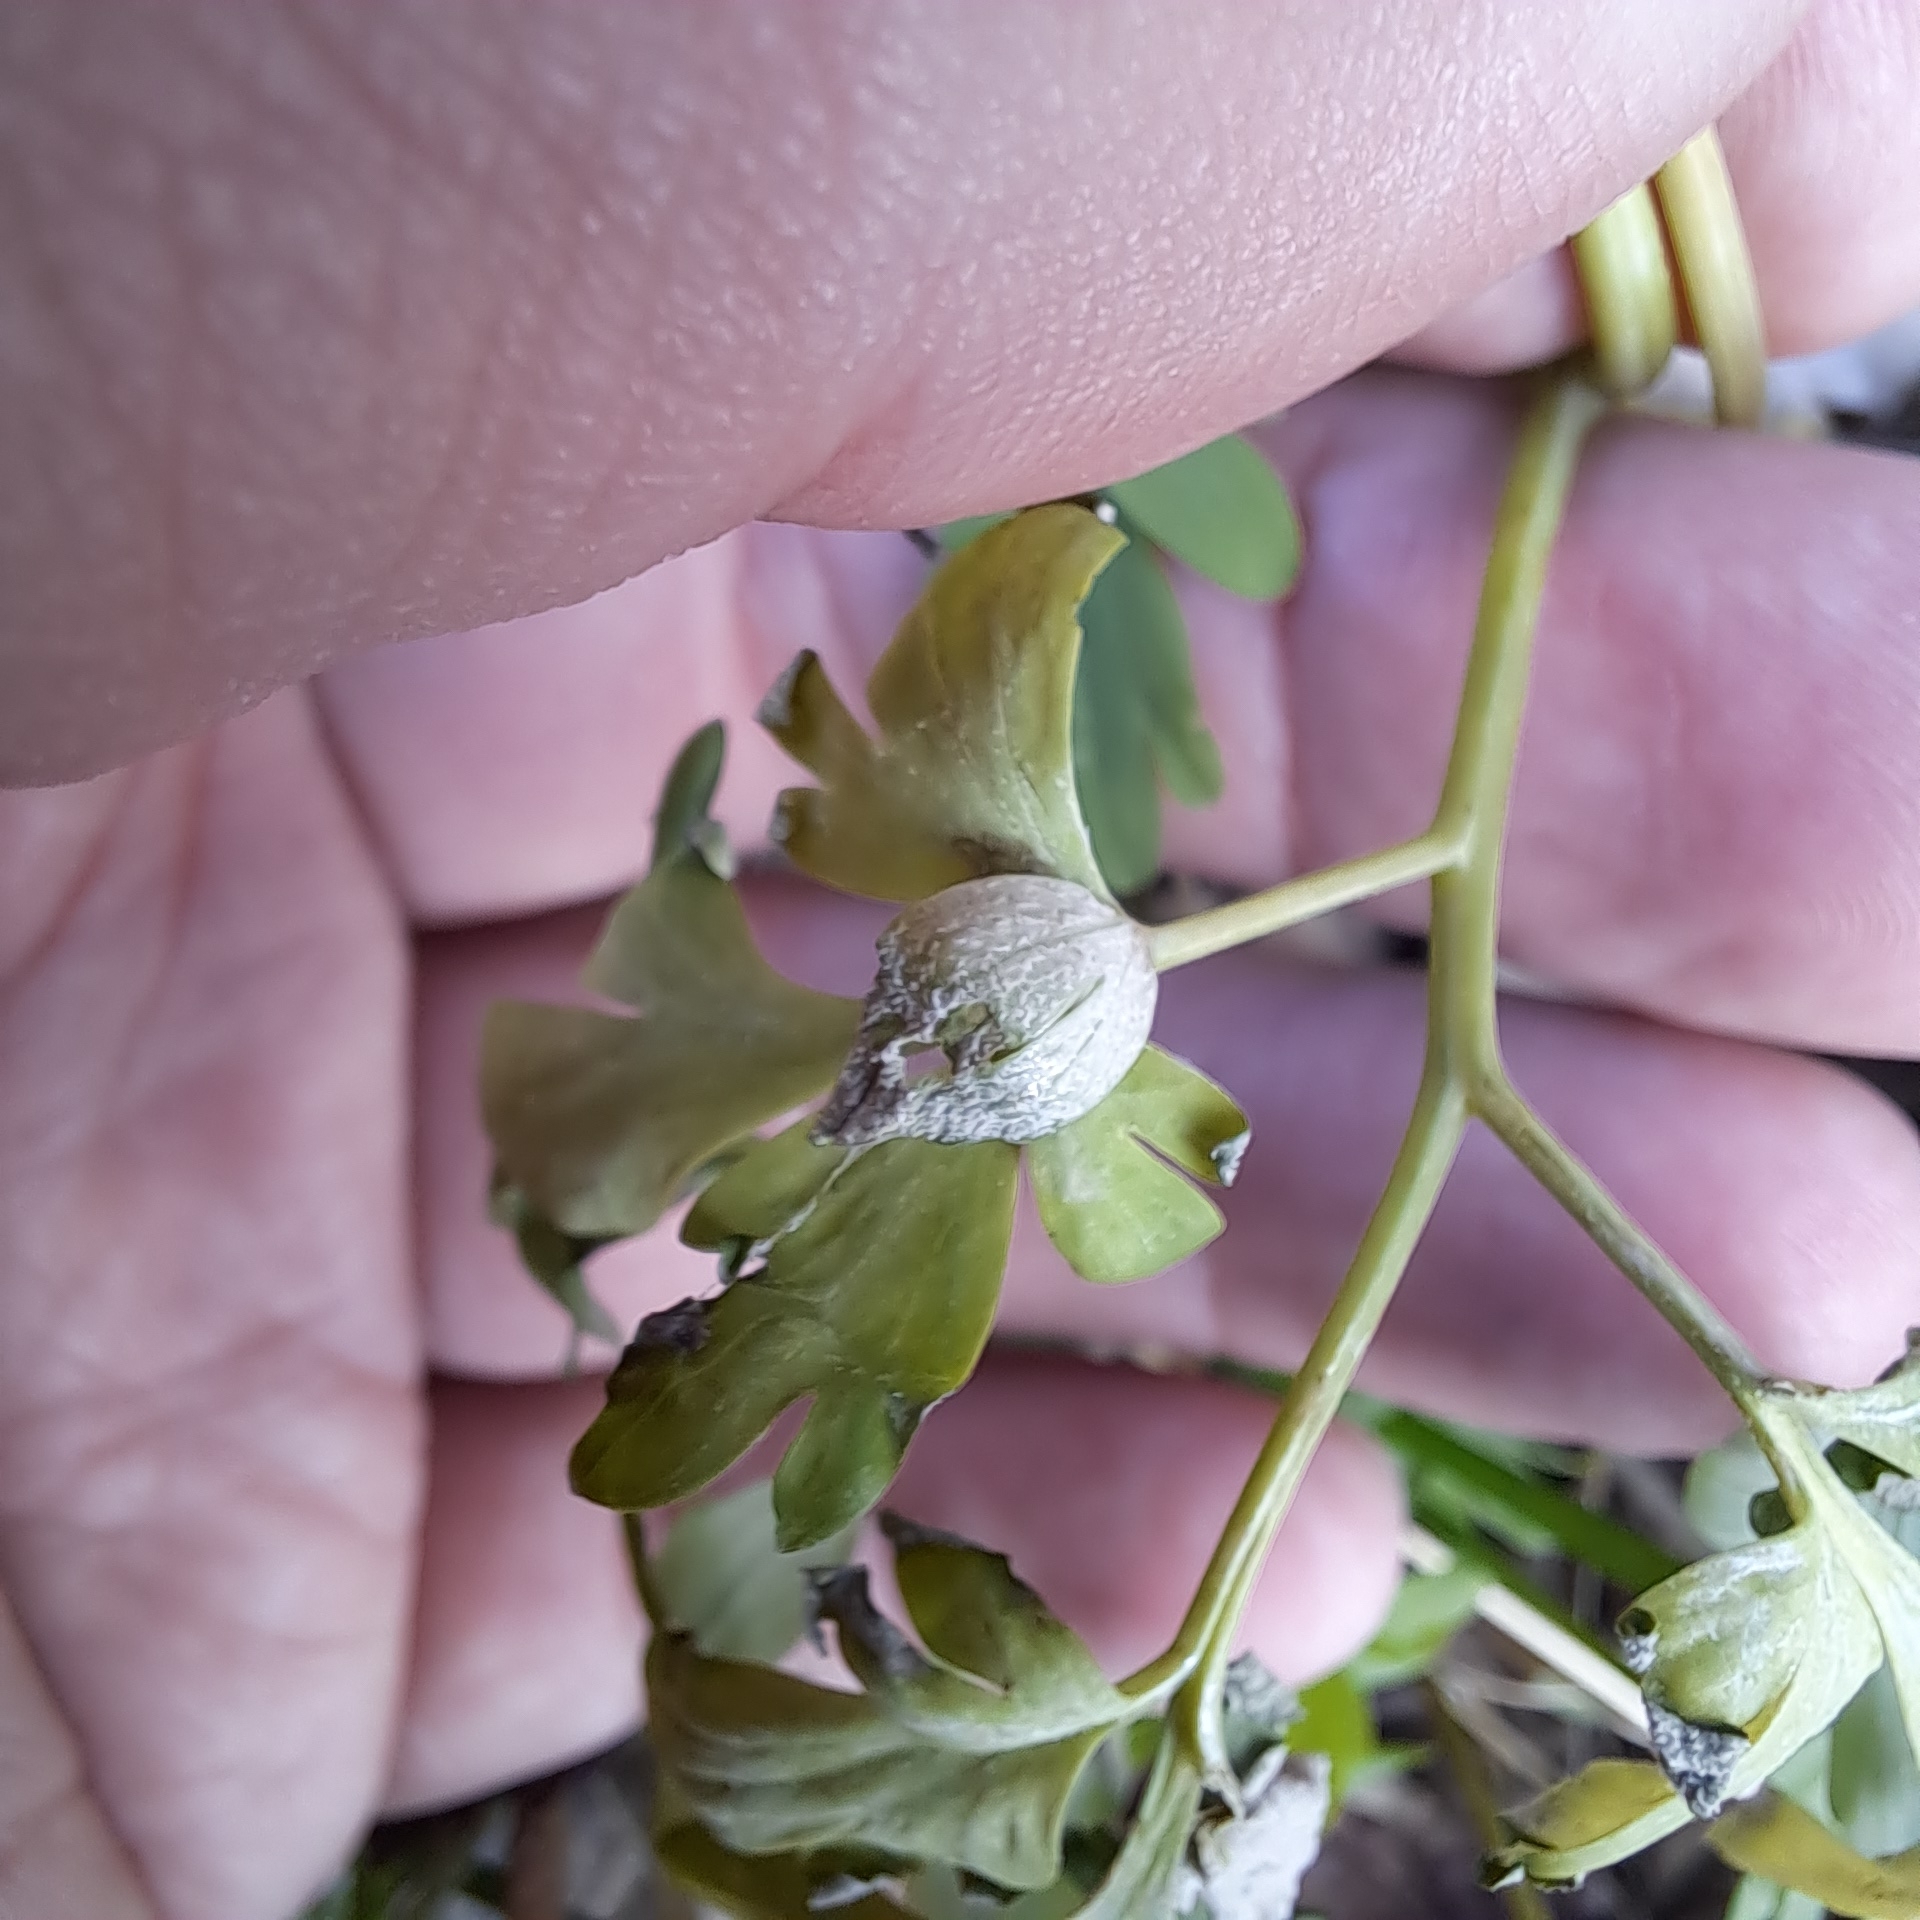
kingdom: Chromista
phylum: Oomycota
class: Peronosporea
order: Peronosporales
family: Peronosporaceae
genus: Peronospora
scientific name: Peronospora bulbocapni
